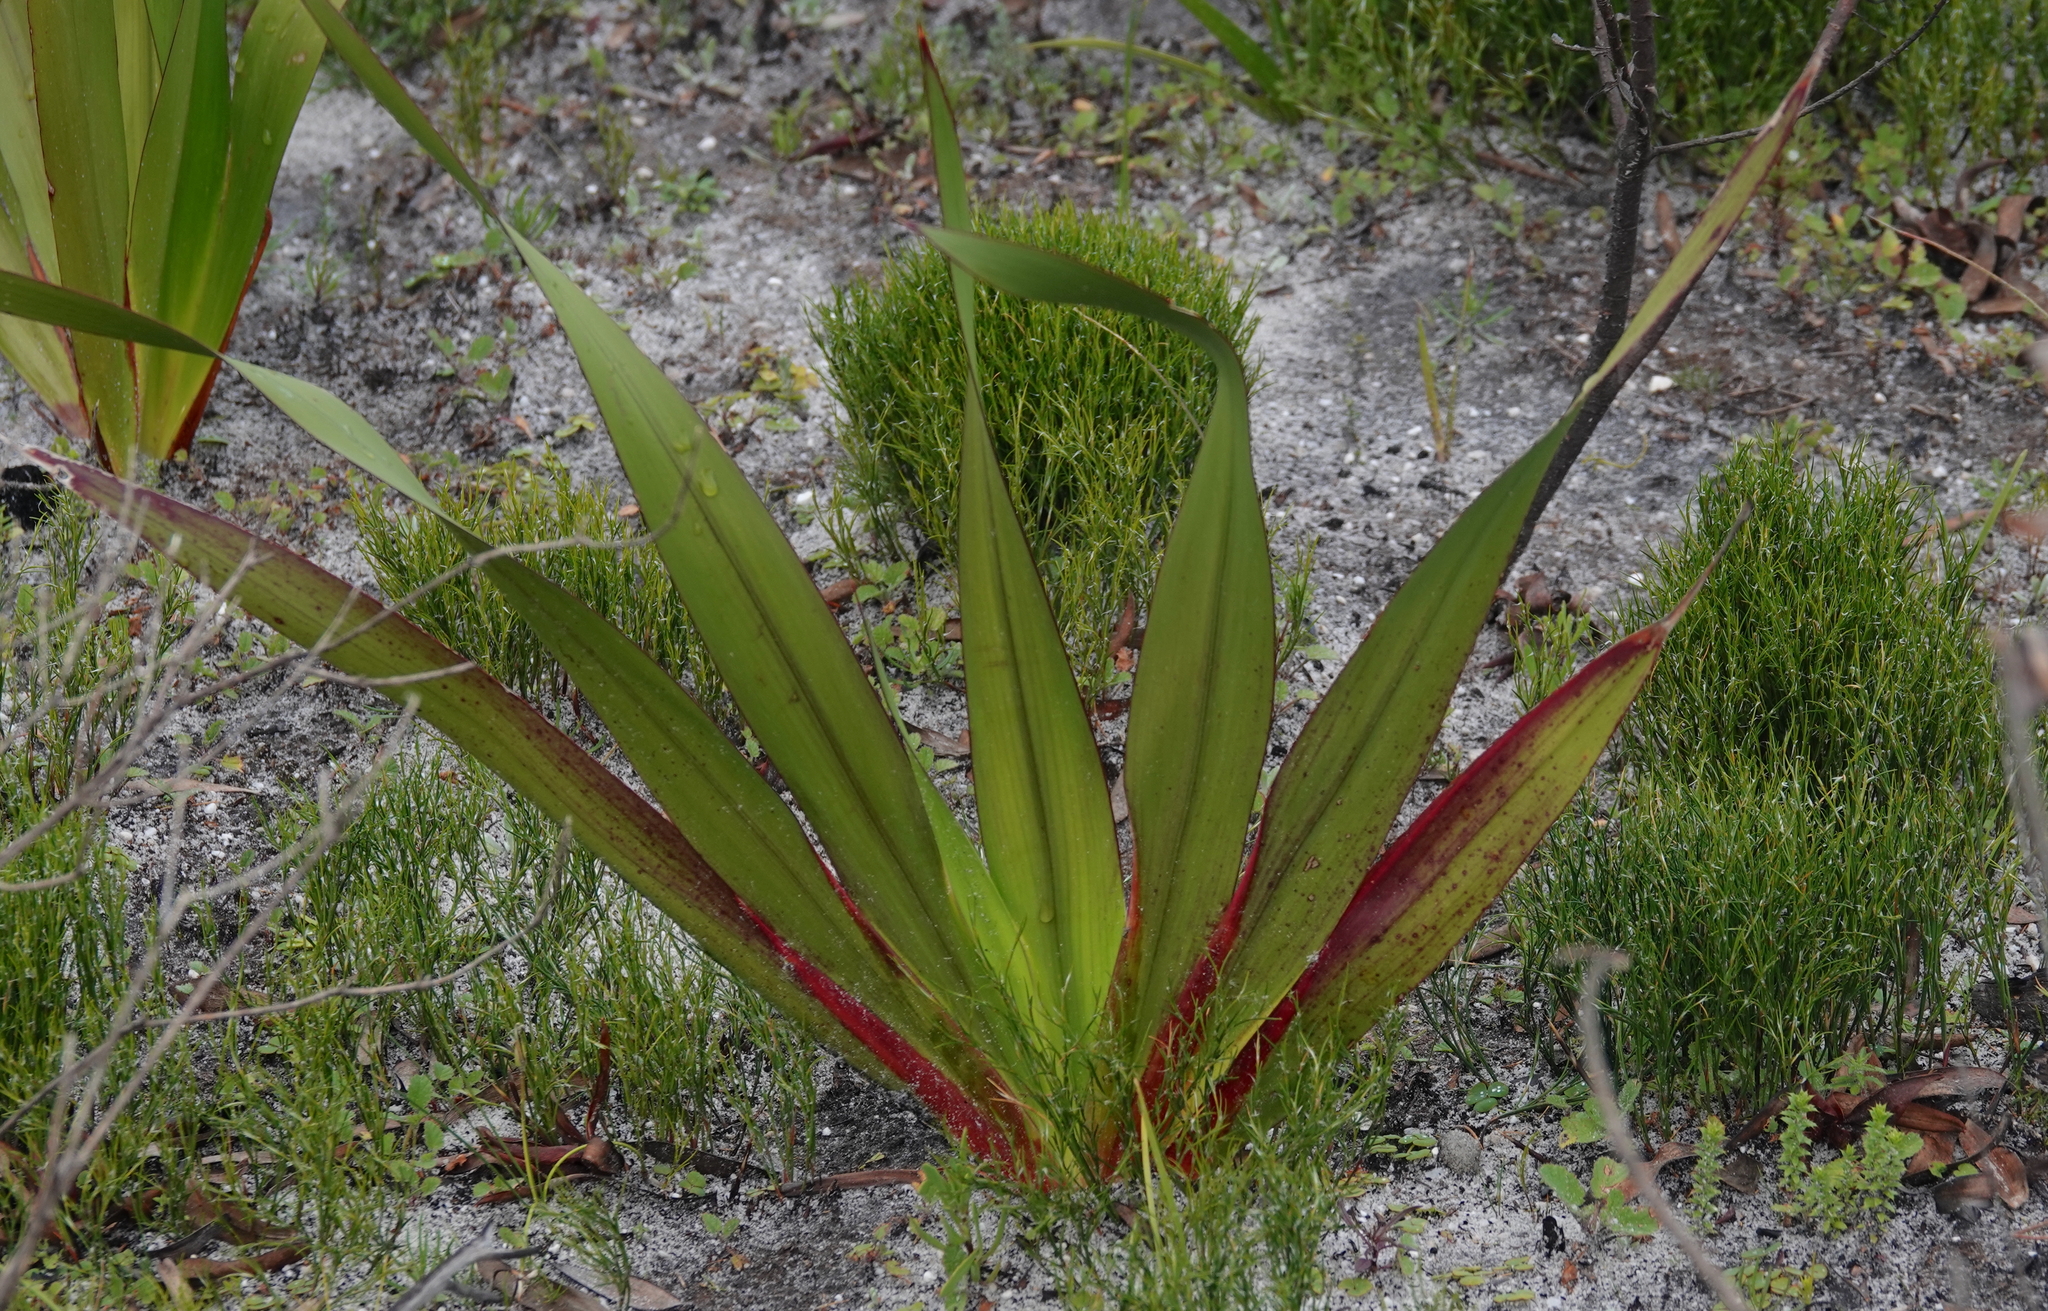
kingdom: Plantae
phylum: Tracheophyta
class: Liliopsida
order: Asparagales
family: Iridaceae
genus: Watsonia
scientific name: Watsonia borbonica
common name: Bugle-lily
